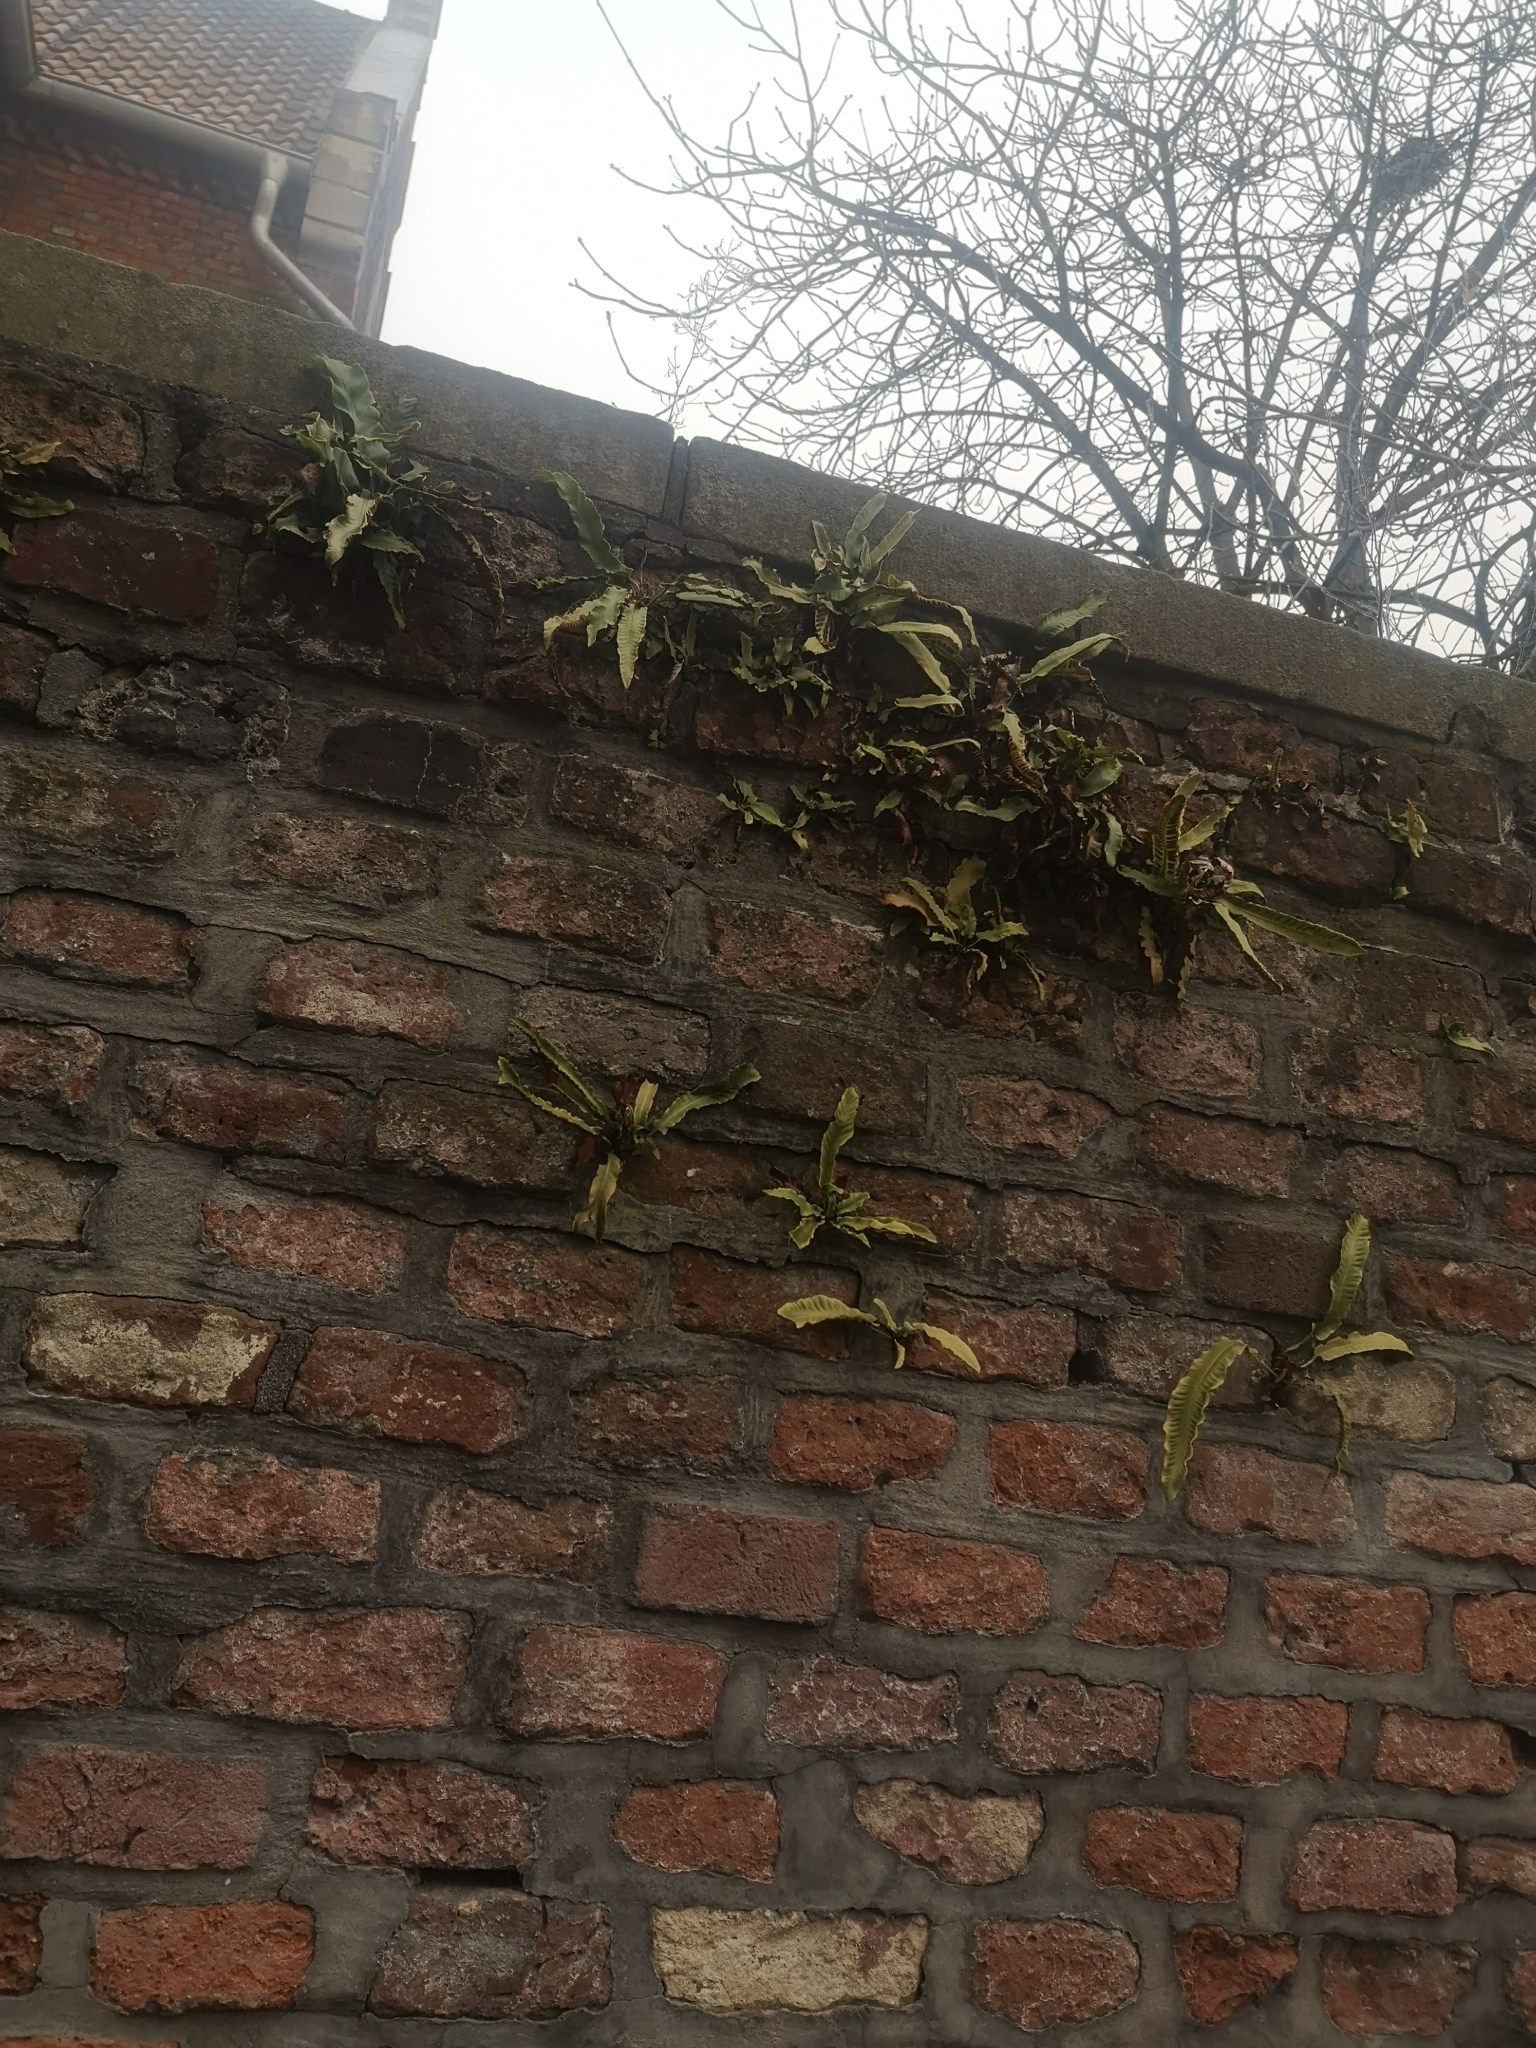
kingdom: Plantae
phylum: Tracheophyta
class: Polypodiopsida
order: Polypodiales
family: Aspleniaceae
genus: Asplenium
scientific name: Asplenium scolopendrium
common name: Hart's-tongue fern
